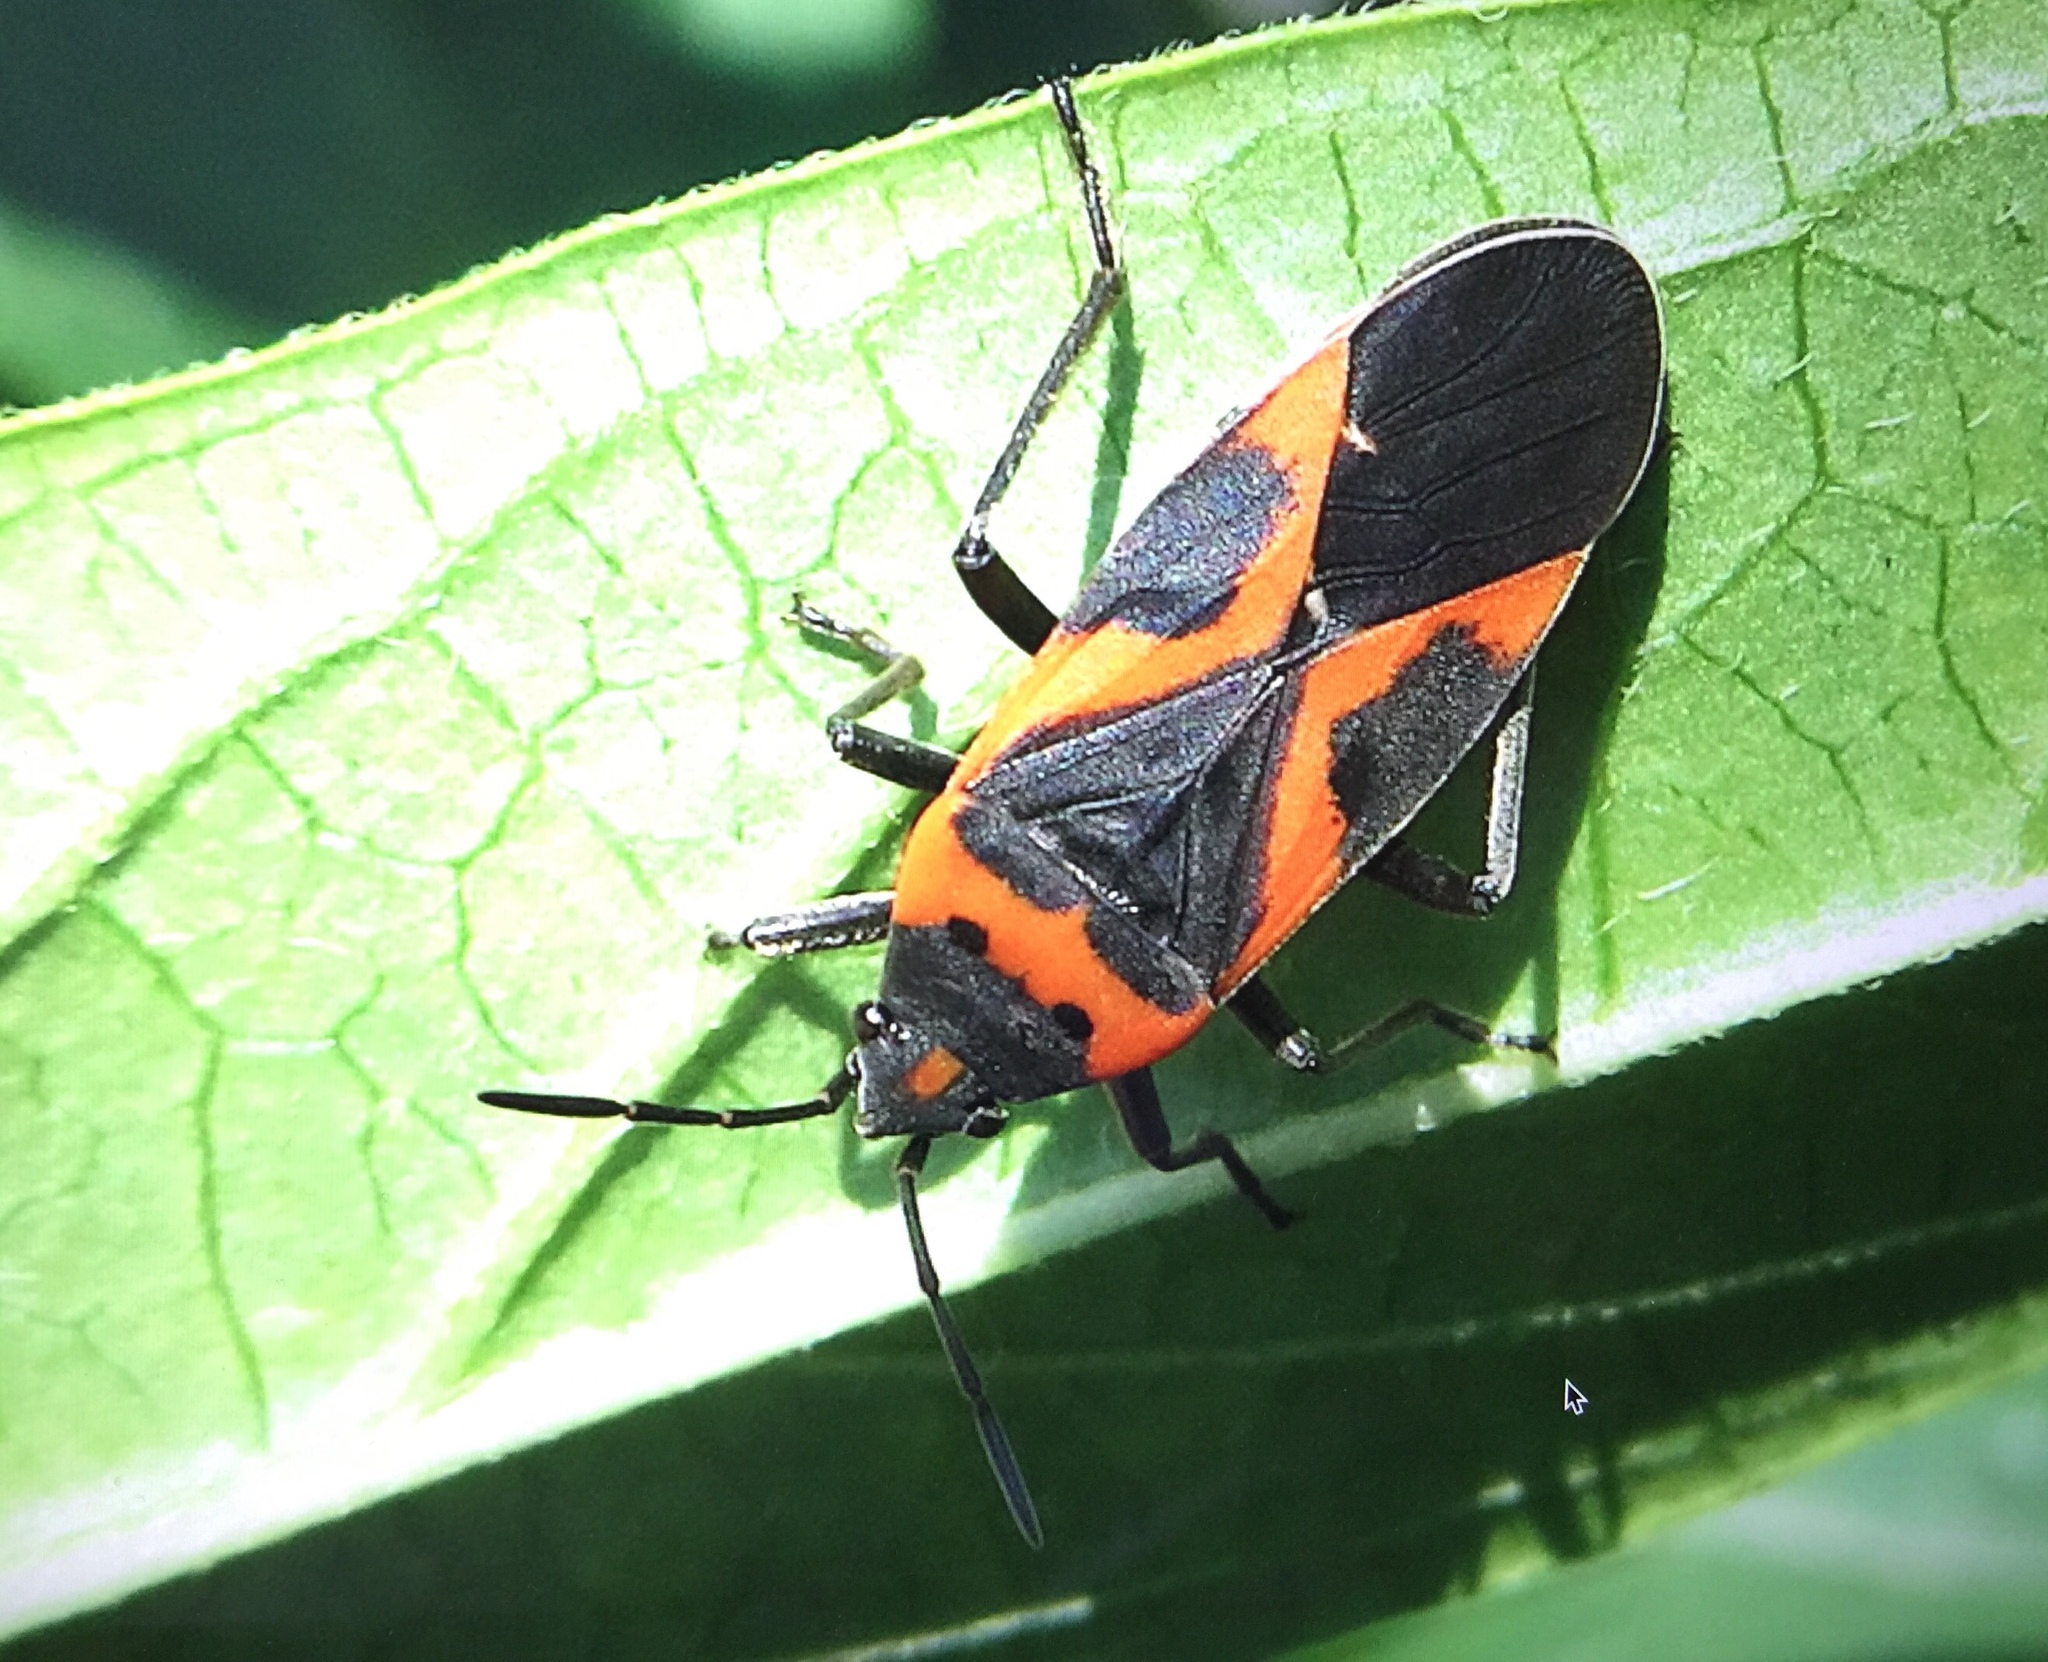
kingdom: Animalia
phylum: Arthropoda
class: Insecta
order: Hemiptera
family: Lygaeidae
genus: Lygaeus
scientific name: Lygaeus kalmii
